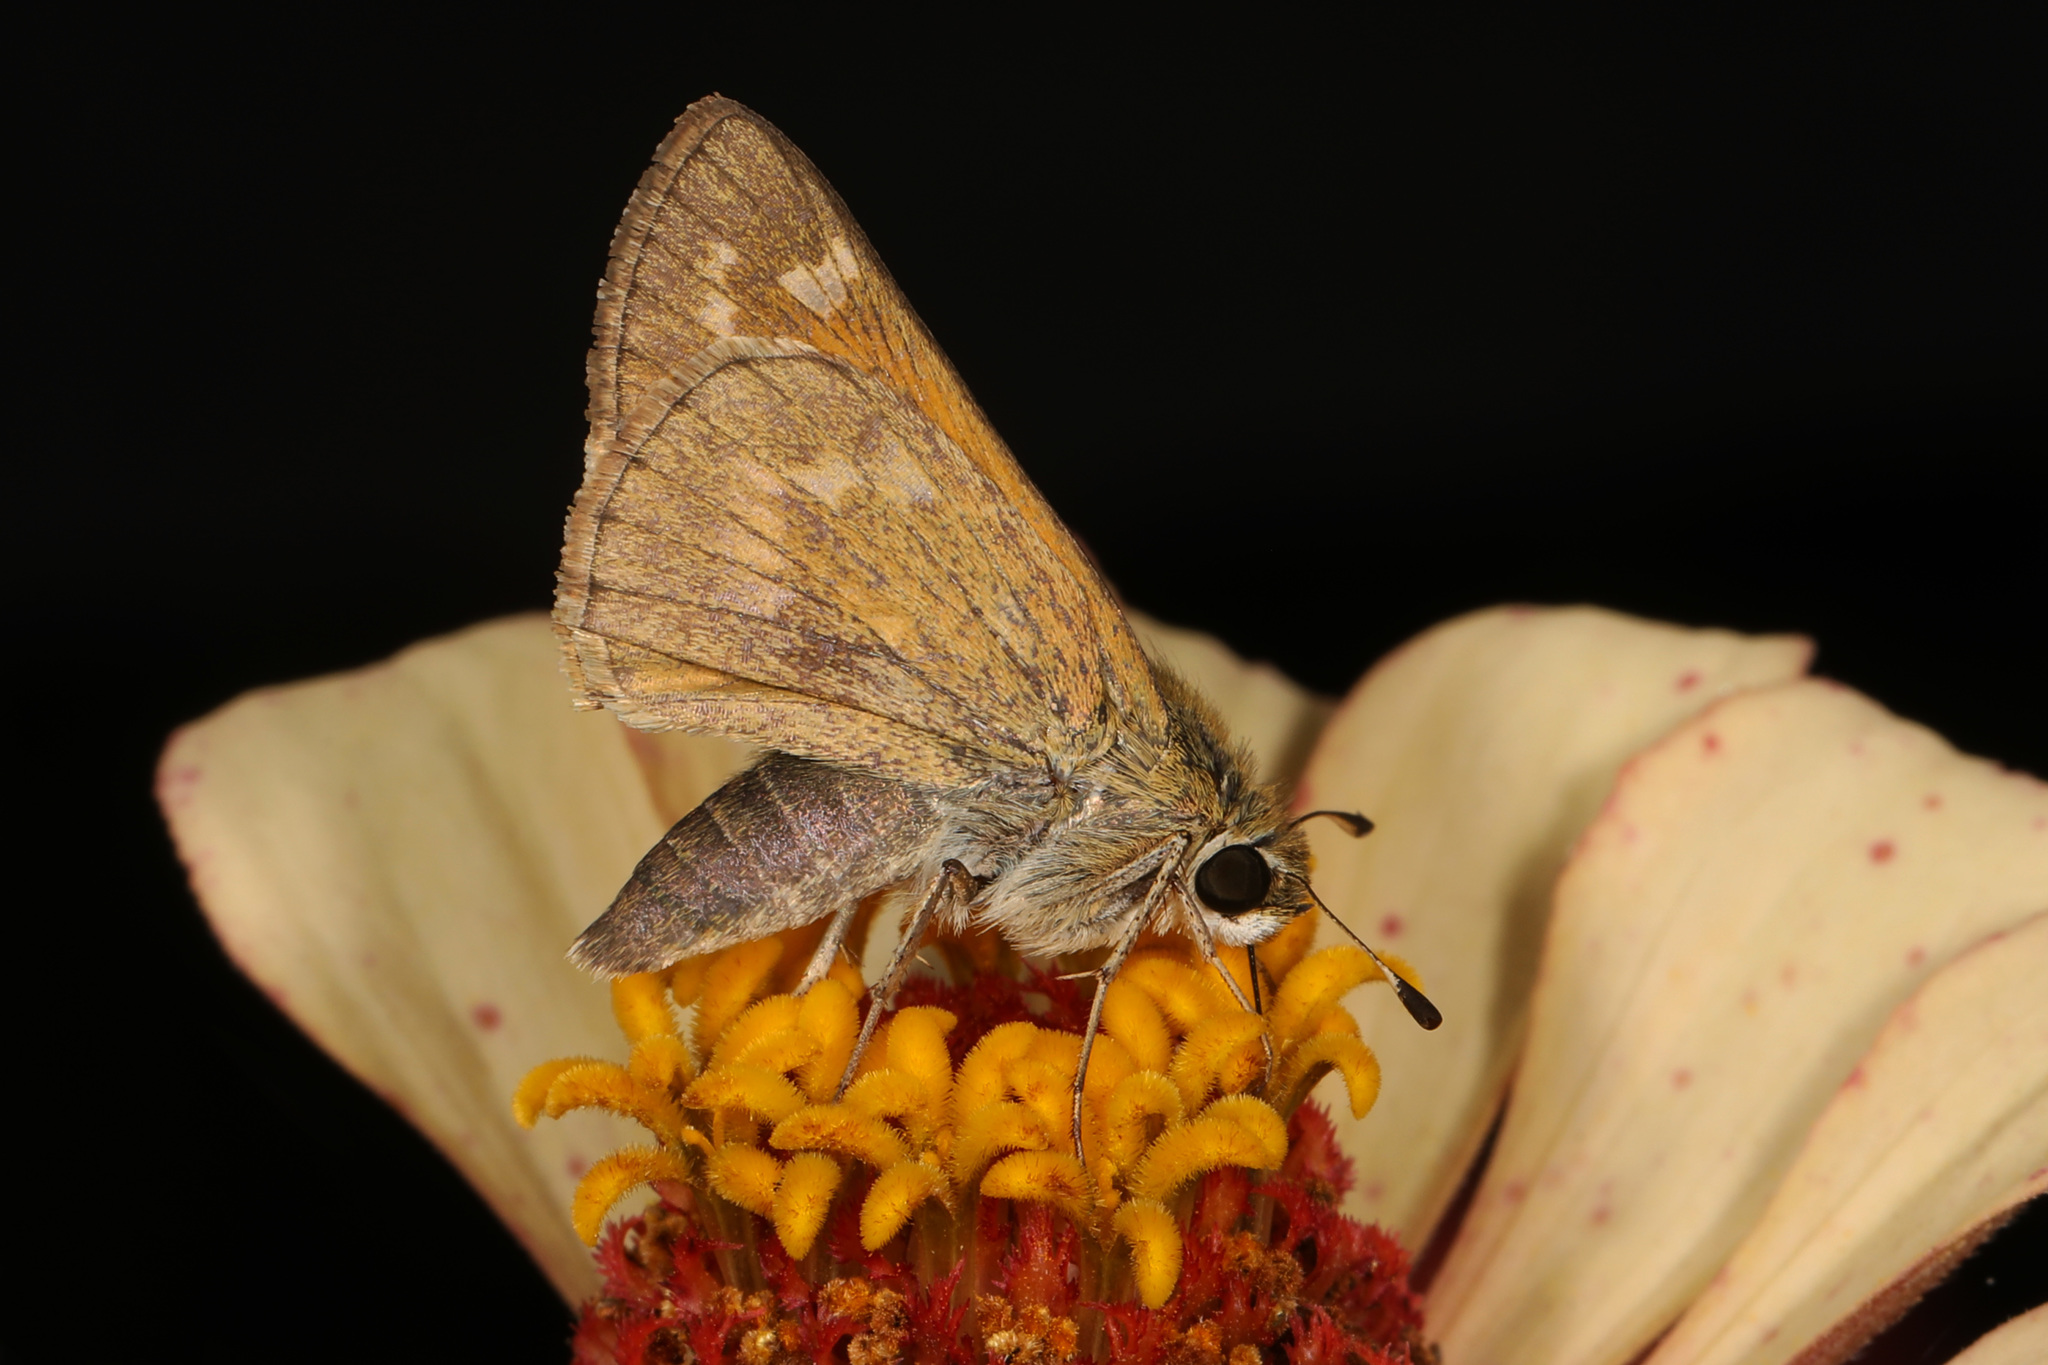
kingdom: Animalia
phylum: Arthropoda
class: Insecta
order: Lepidoptera
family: Hesperiidae
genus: Atalopedes
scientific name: Atalopedes
